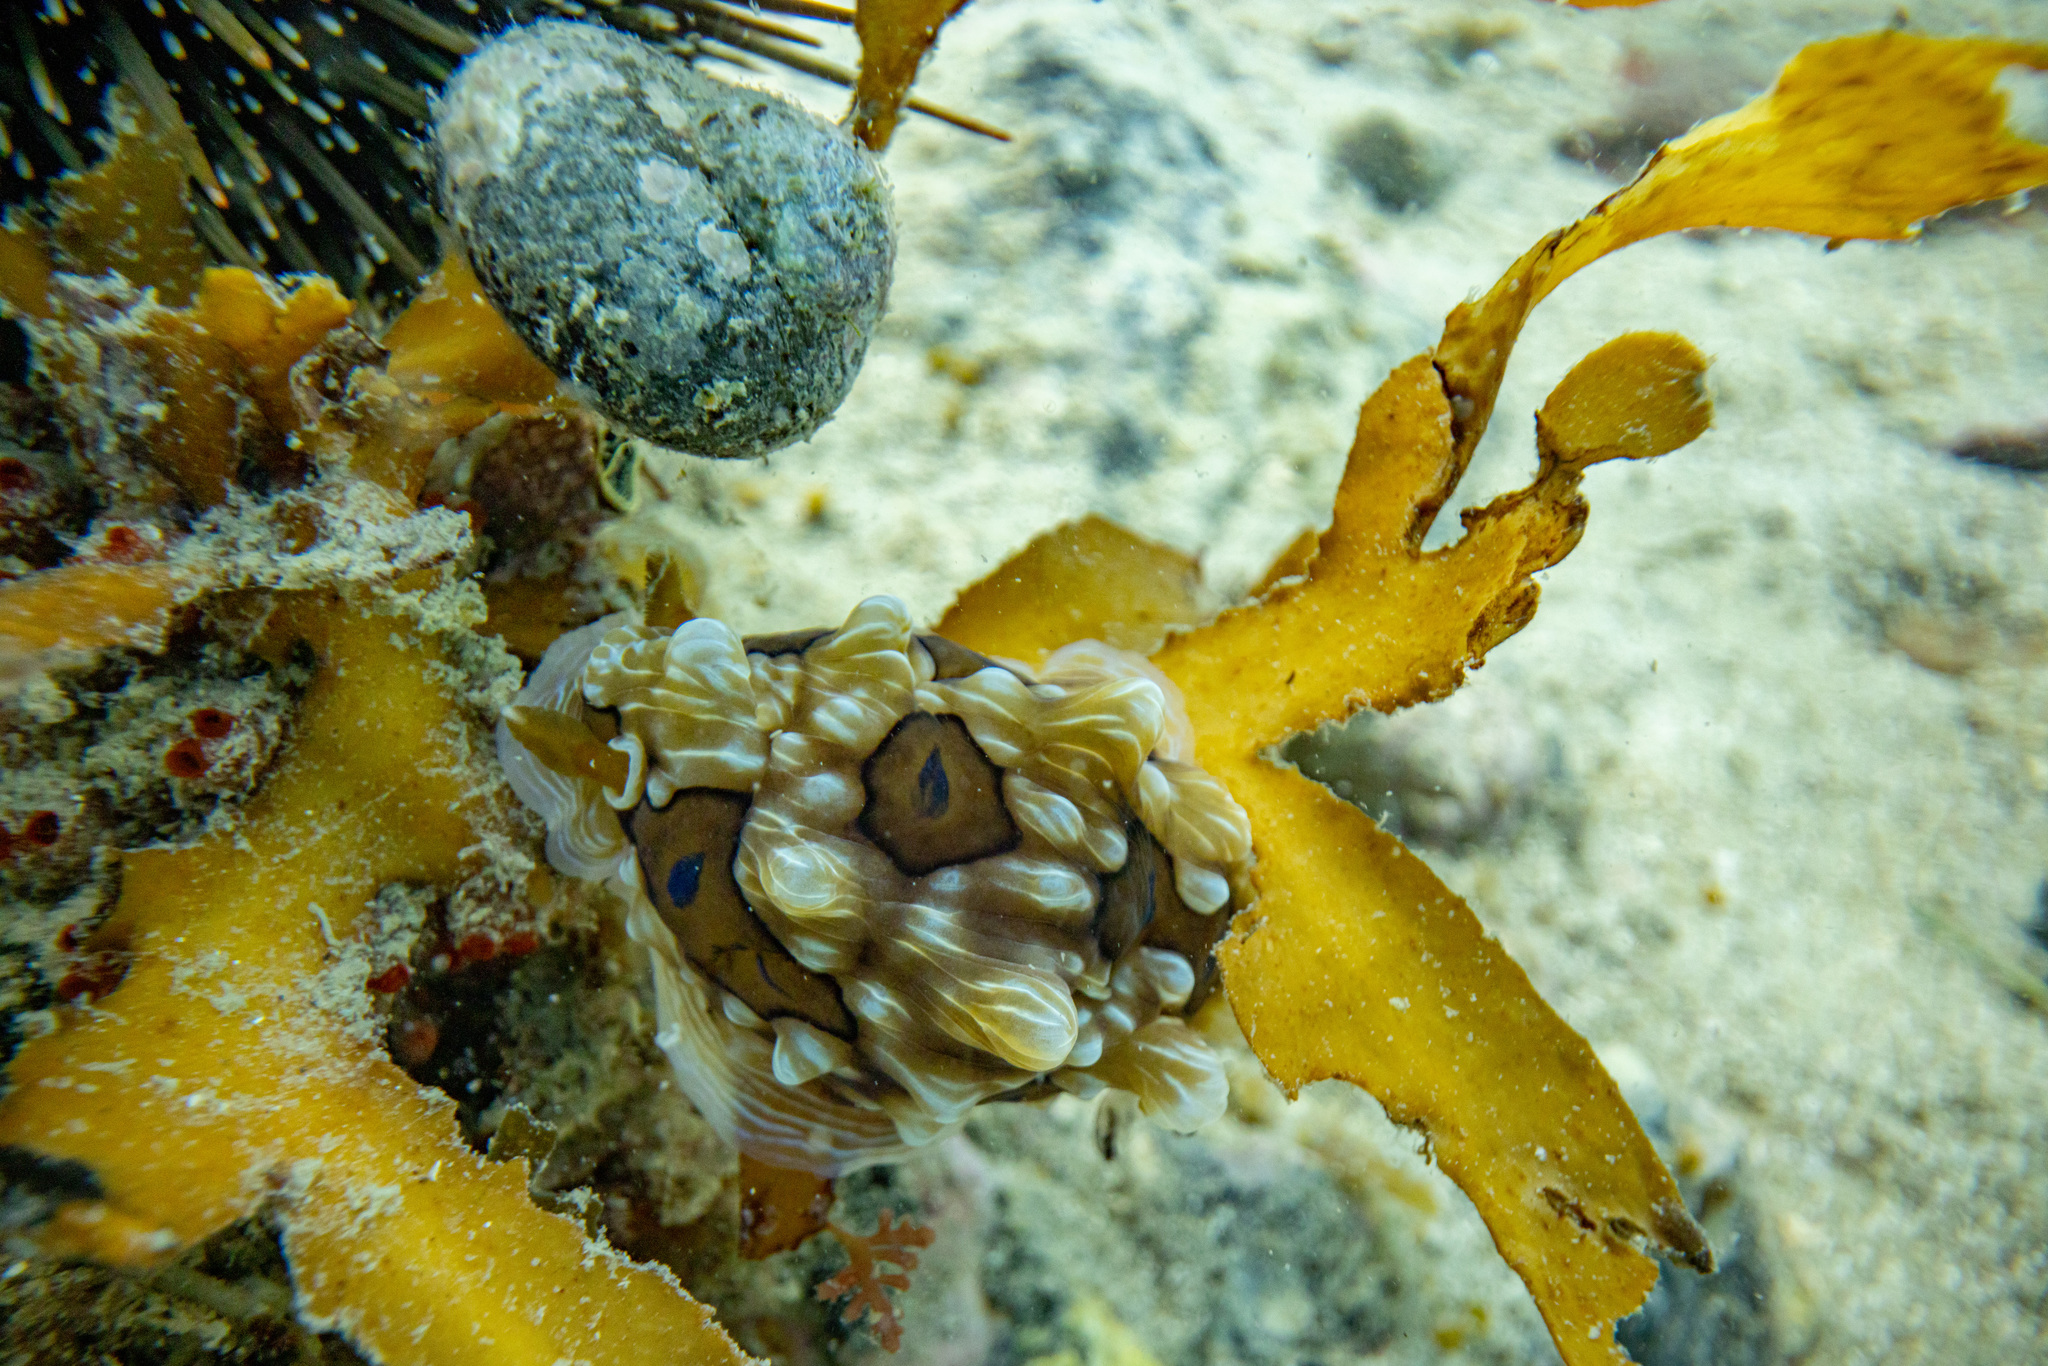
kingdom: Animalia
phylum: Mollusca
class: Gastropoda
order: Nudibranchia
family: Dendrodorididae
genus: Dendrodoris
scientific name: Dendrodoris krusensternii
